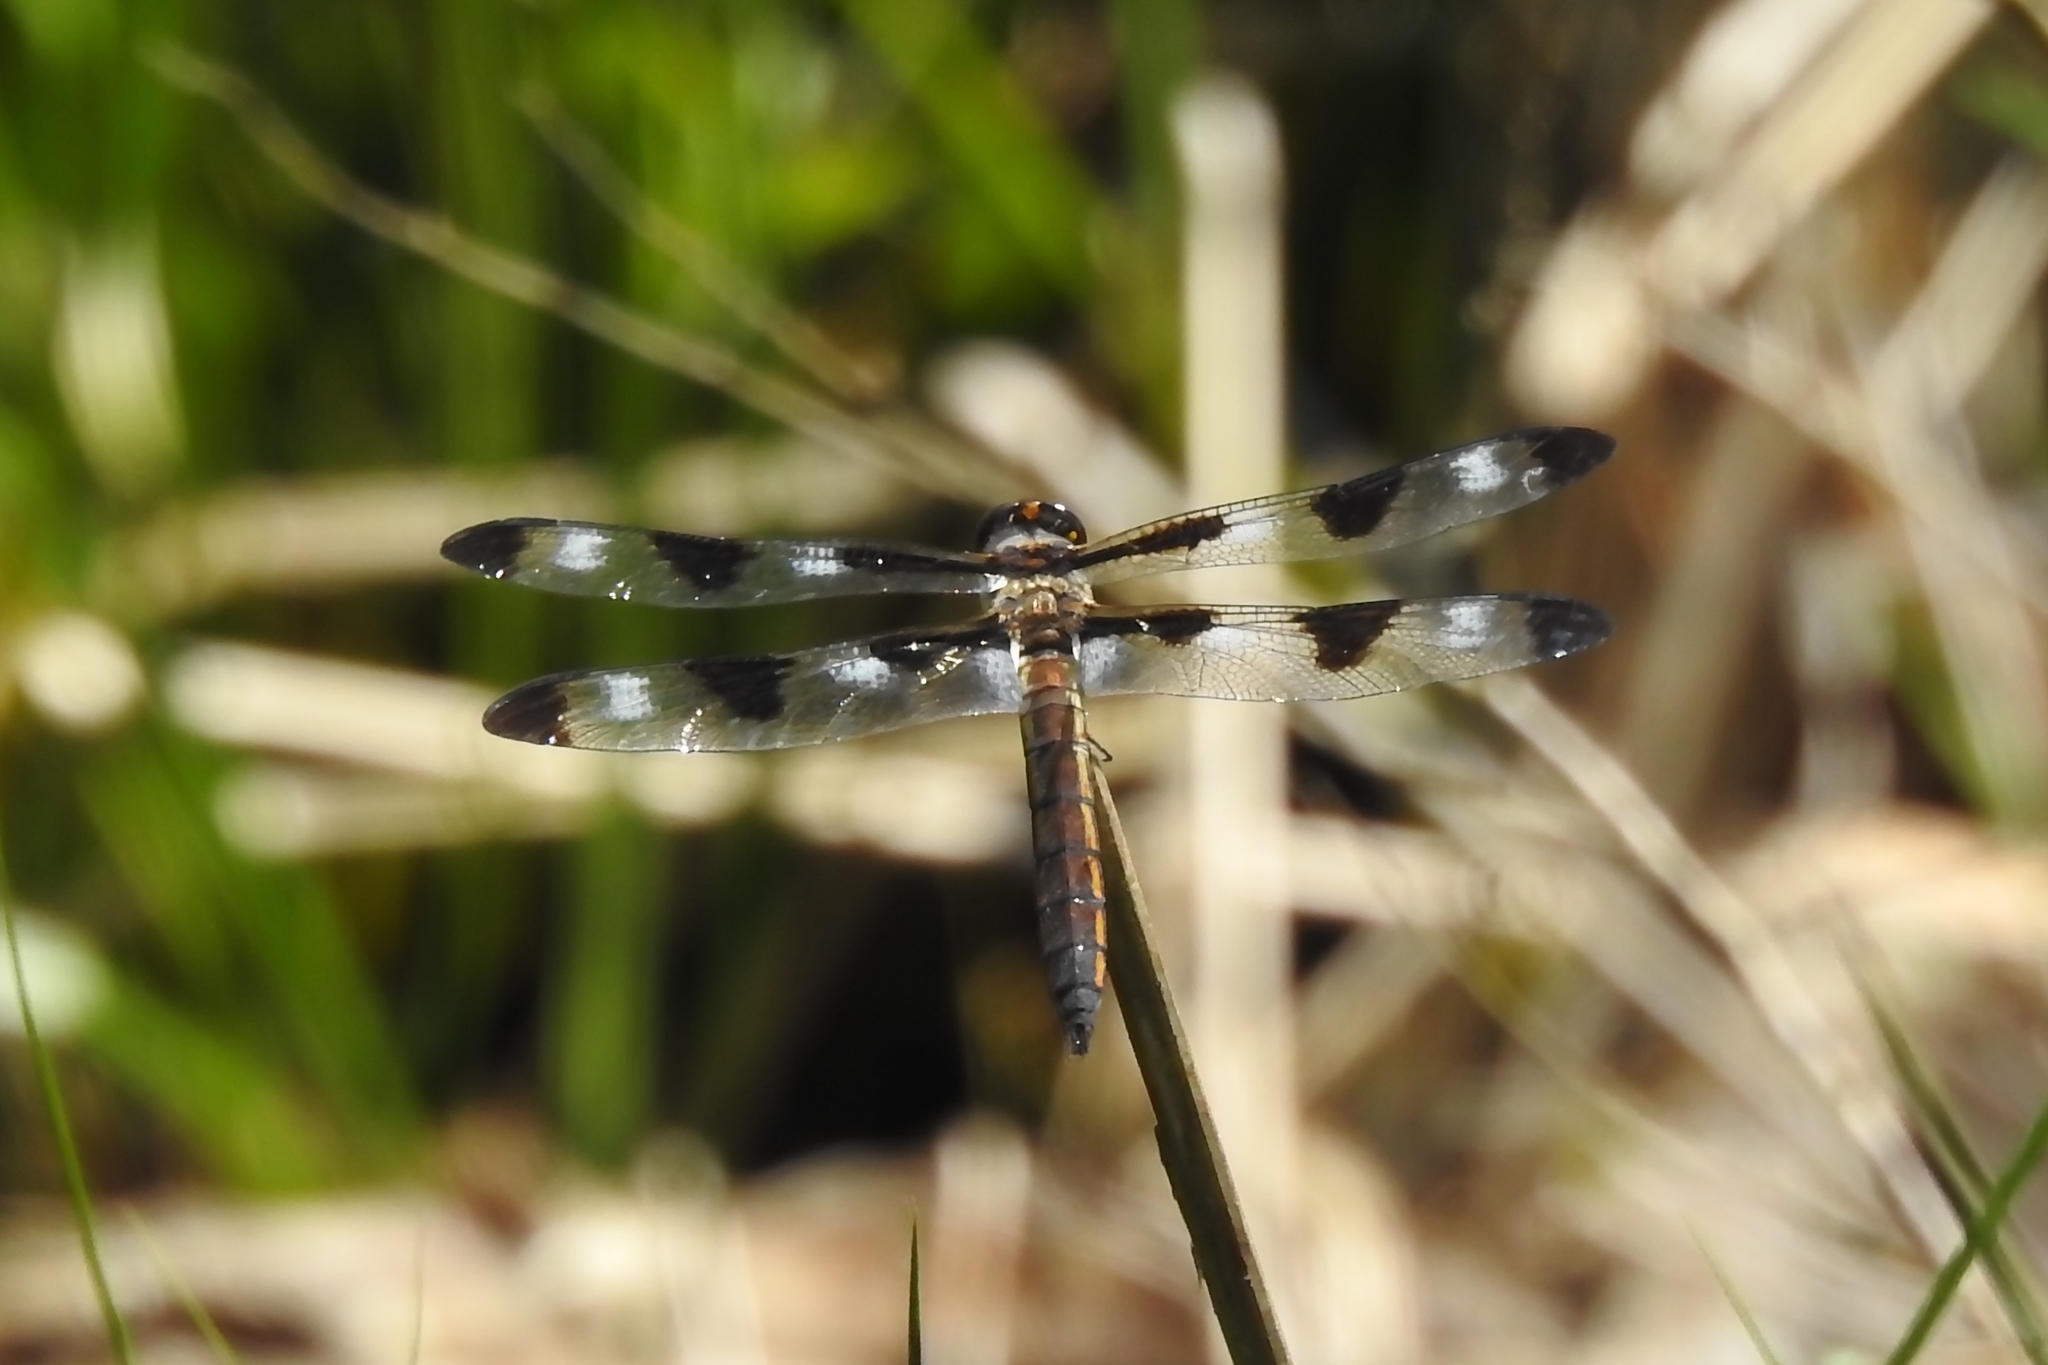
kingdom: Animalia
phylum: Arthropoda
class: Insecta
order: Odonata
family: Libellulidae
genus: Libellula
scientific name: Libellula pulchella
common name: Twelve-spotted skimmer
